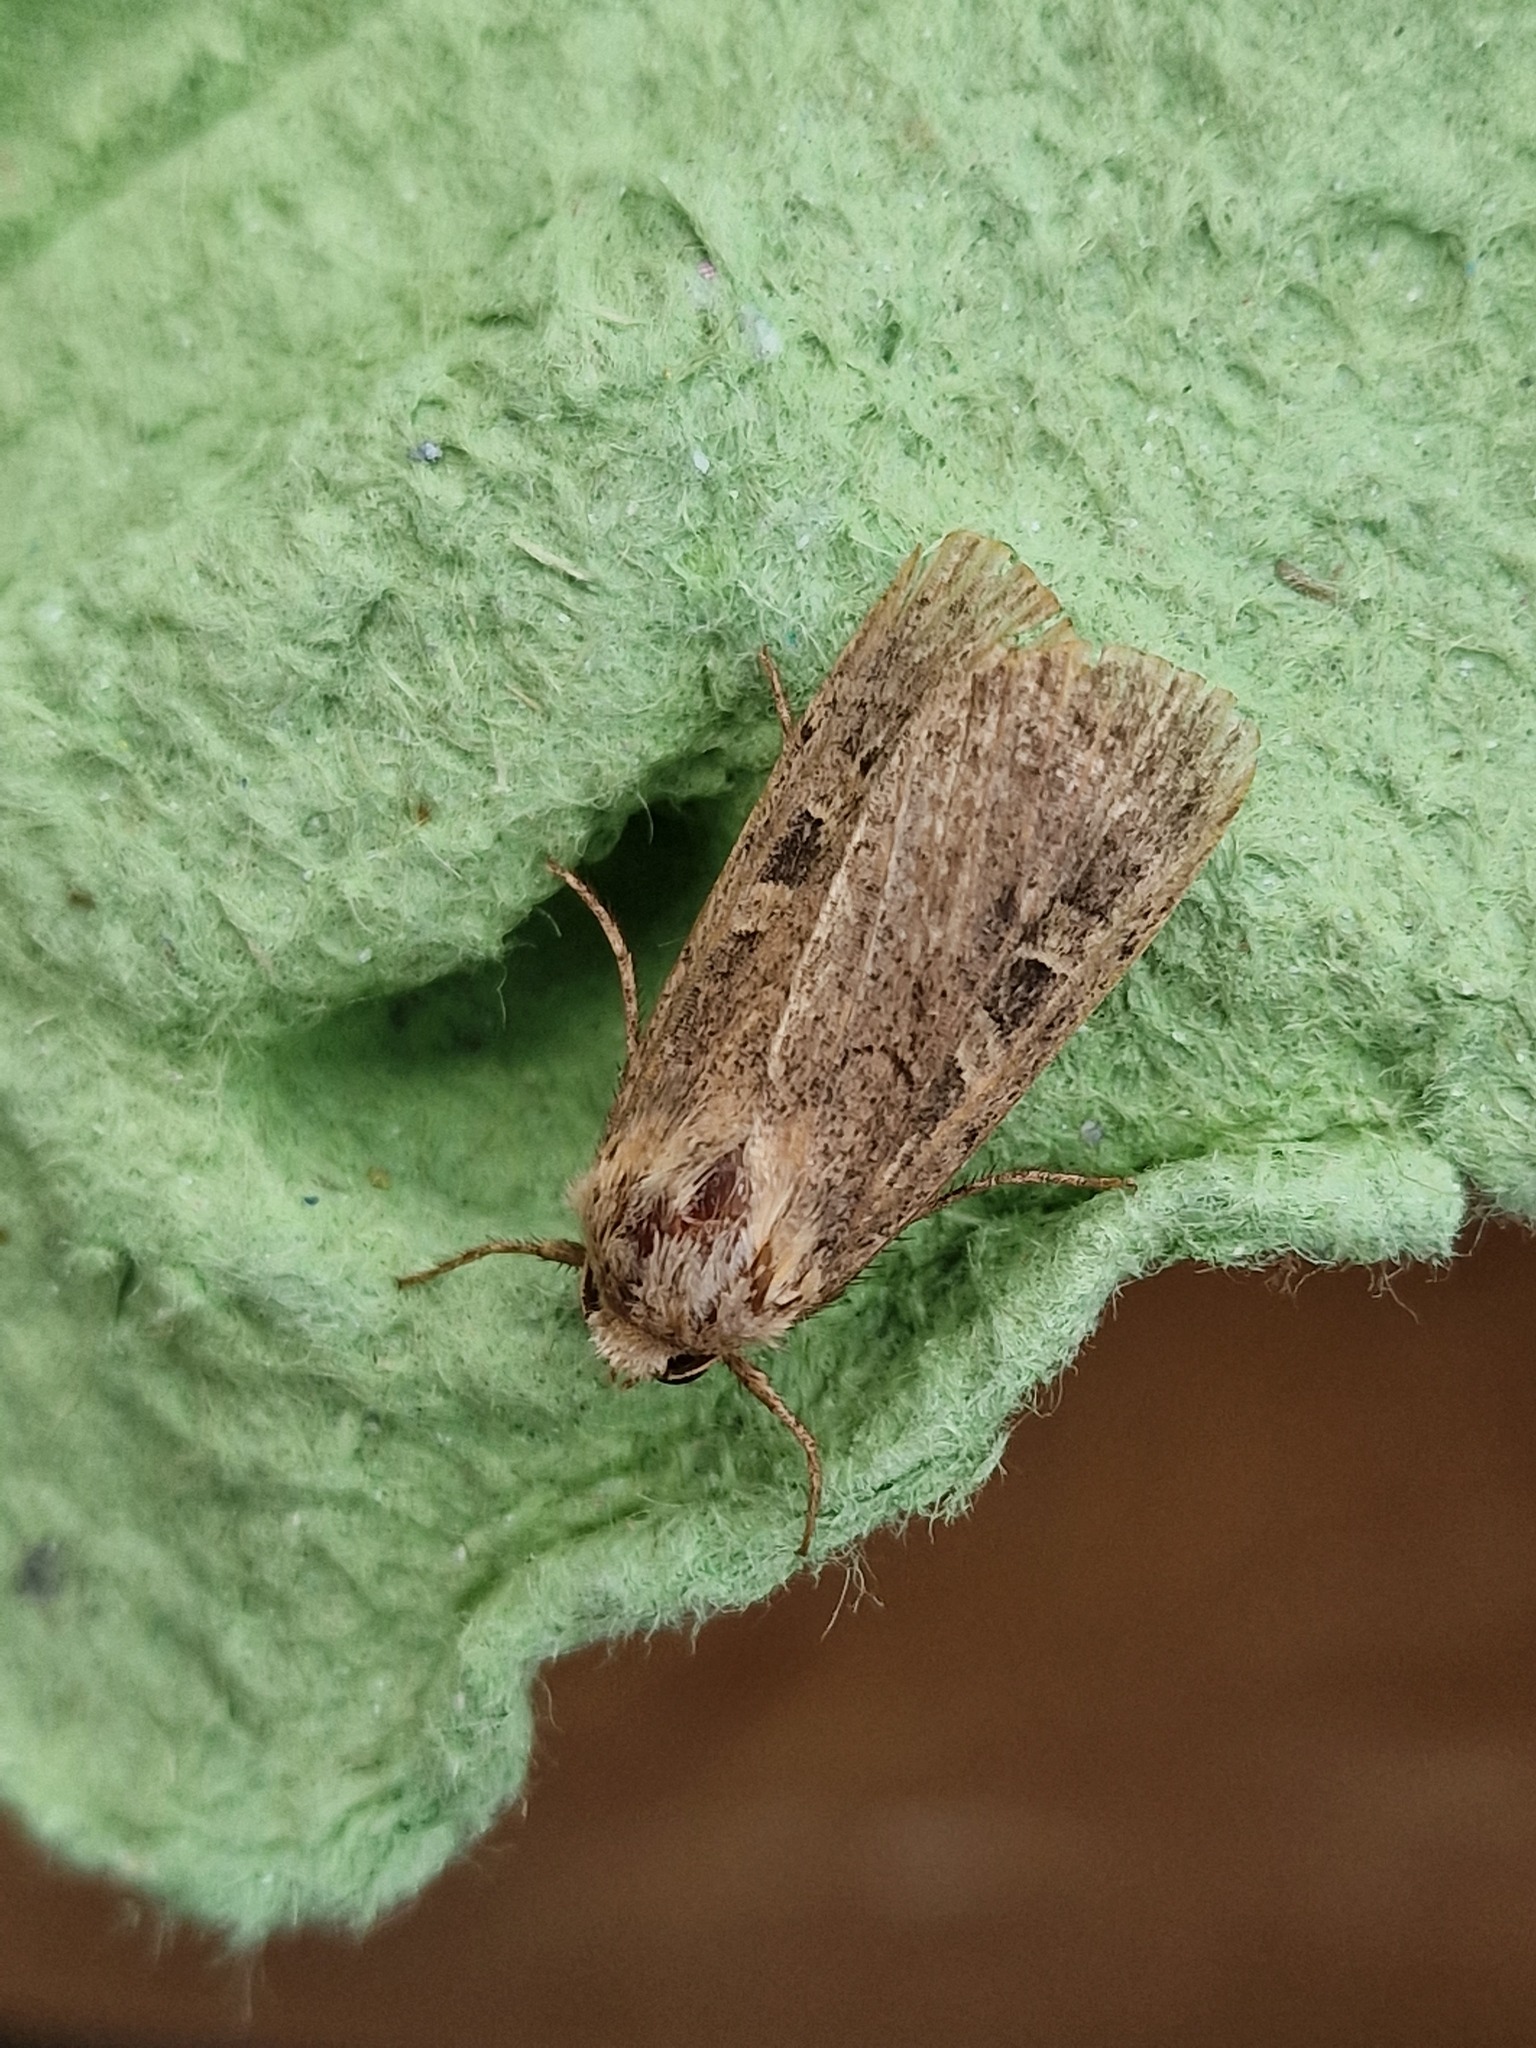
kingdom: Animalia
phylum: Arthropoda
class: Insecta
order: Lepidoptera
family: Noctuidae
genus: Xestia
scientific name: Xestia xanthographa
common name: Square-spot rustic
